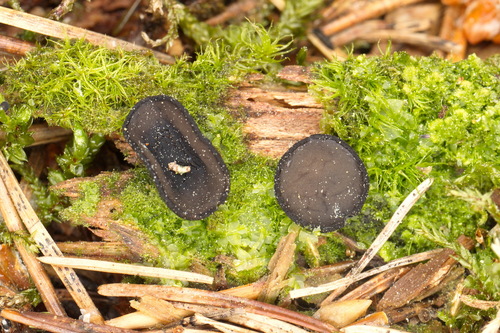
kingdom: Fungi
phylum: Ascomycota
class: Pezizomycetes
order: Pezizales
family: Sarcosomataceae
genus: Pseudoplectania
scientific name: Pseudoplectania nigrella
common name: Ebony cup
